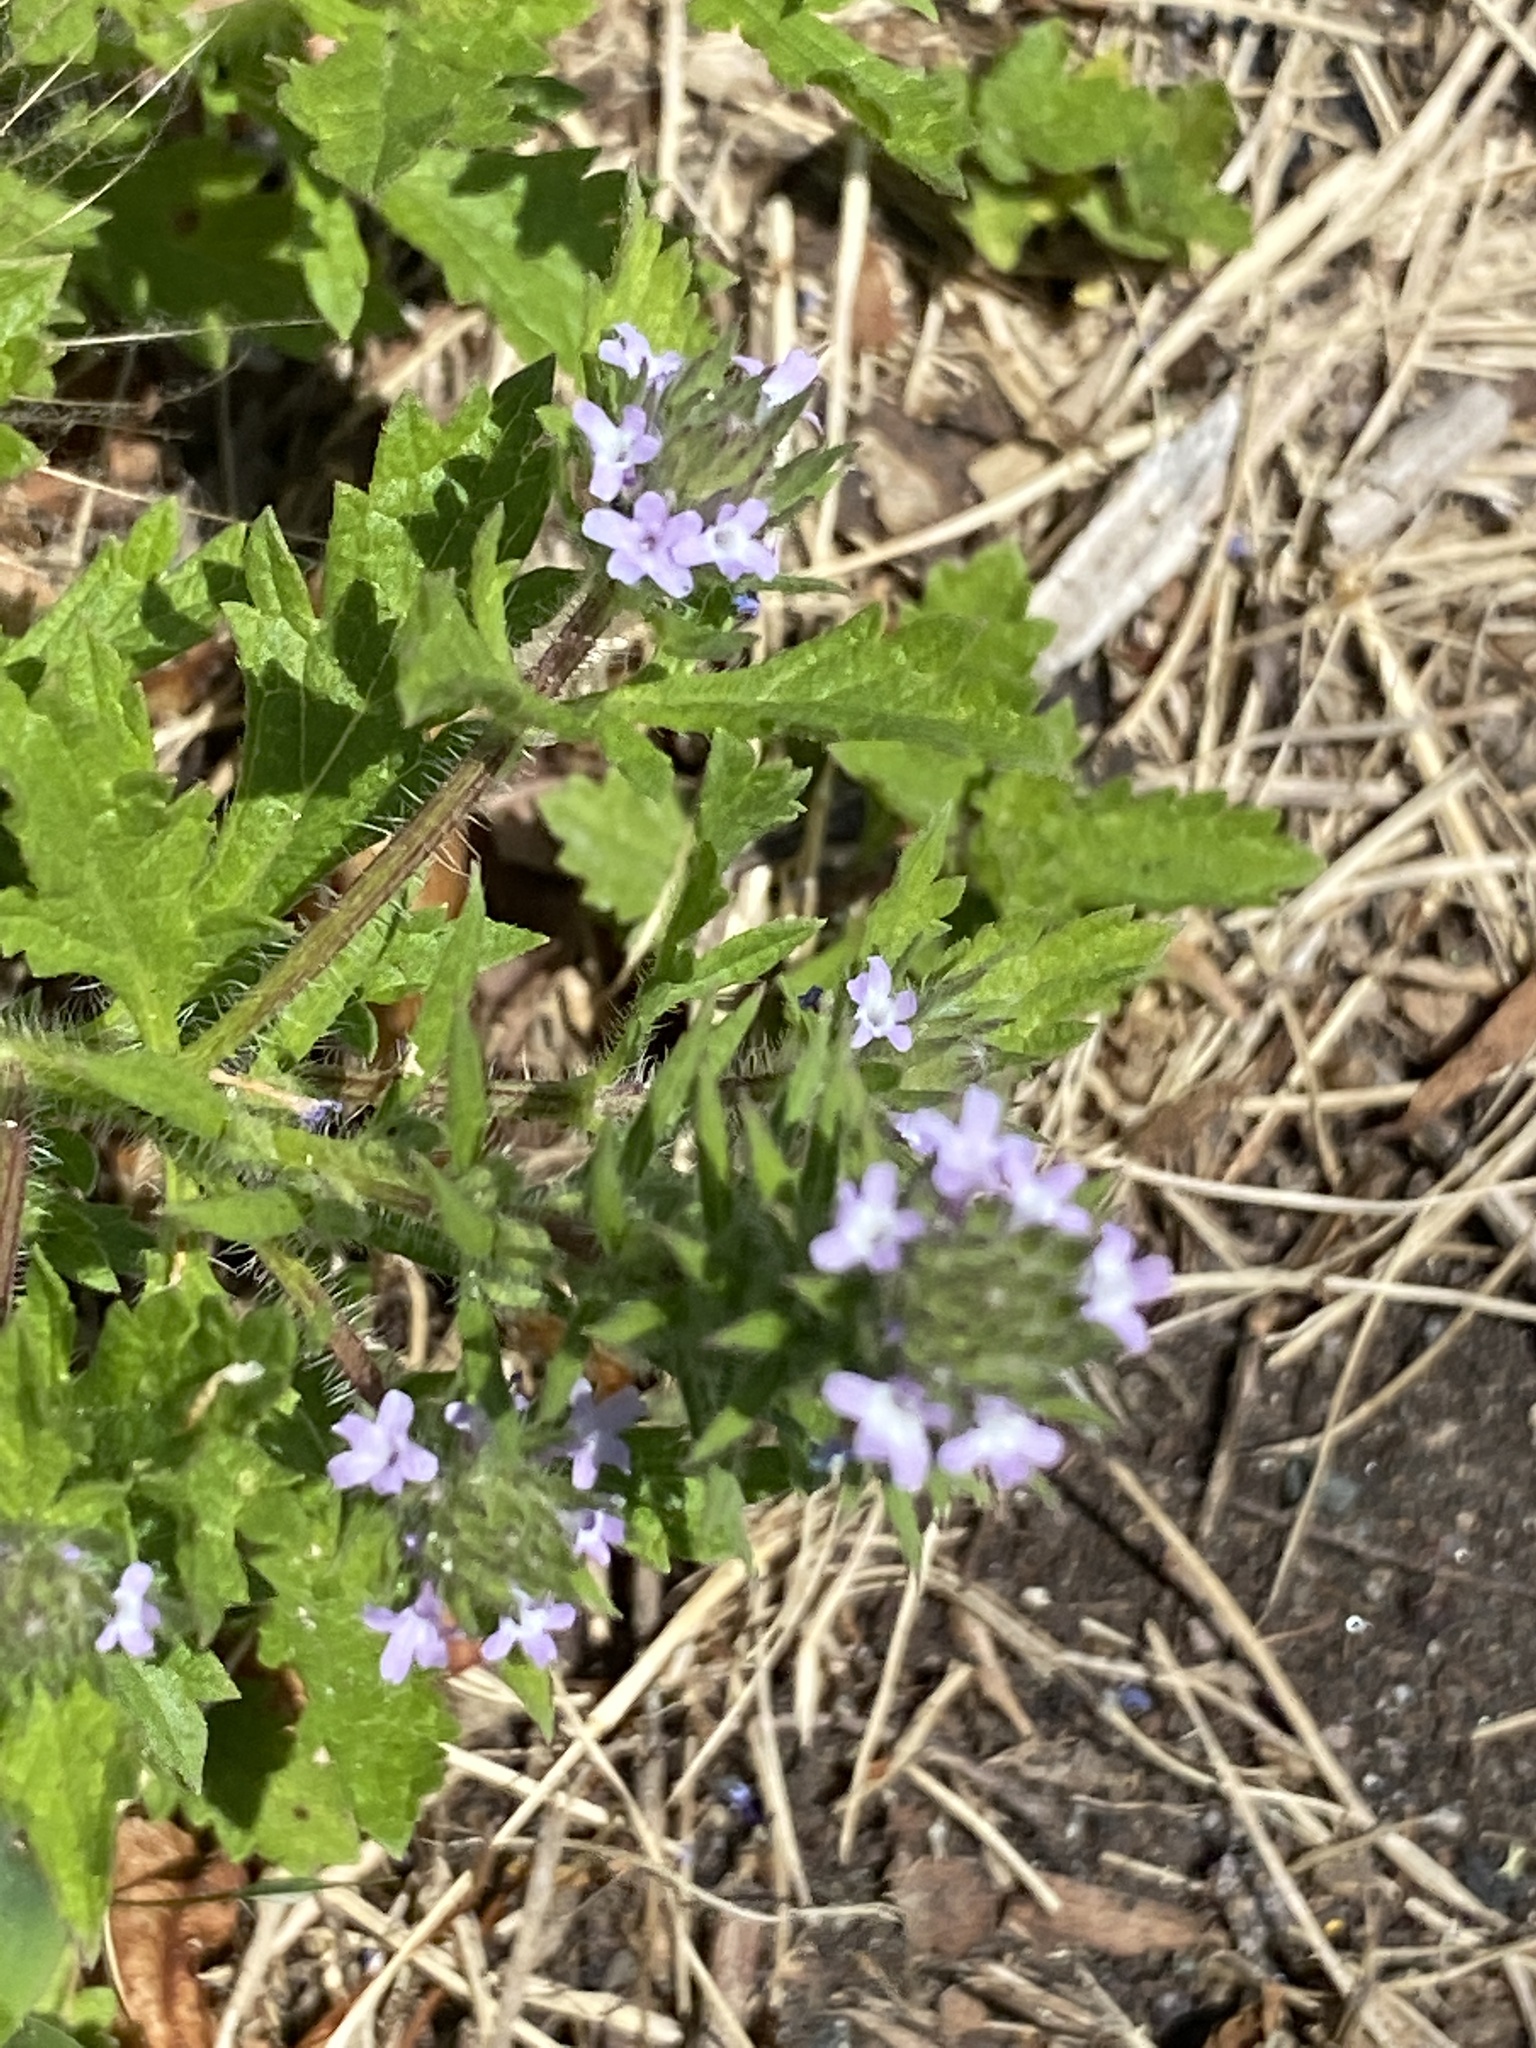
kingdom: Plantae
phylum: Tracheophyta
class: Magnoliopsida
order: Lamiales
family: Verbenaceae
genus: Verbena
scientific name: Verbena bracteata
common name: Bracted vervain
